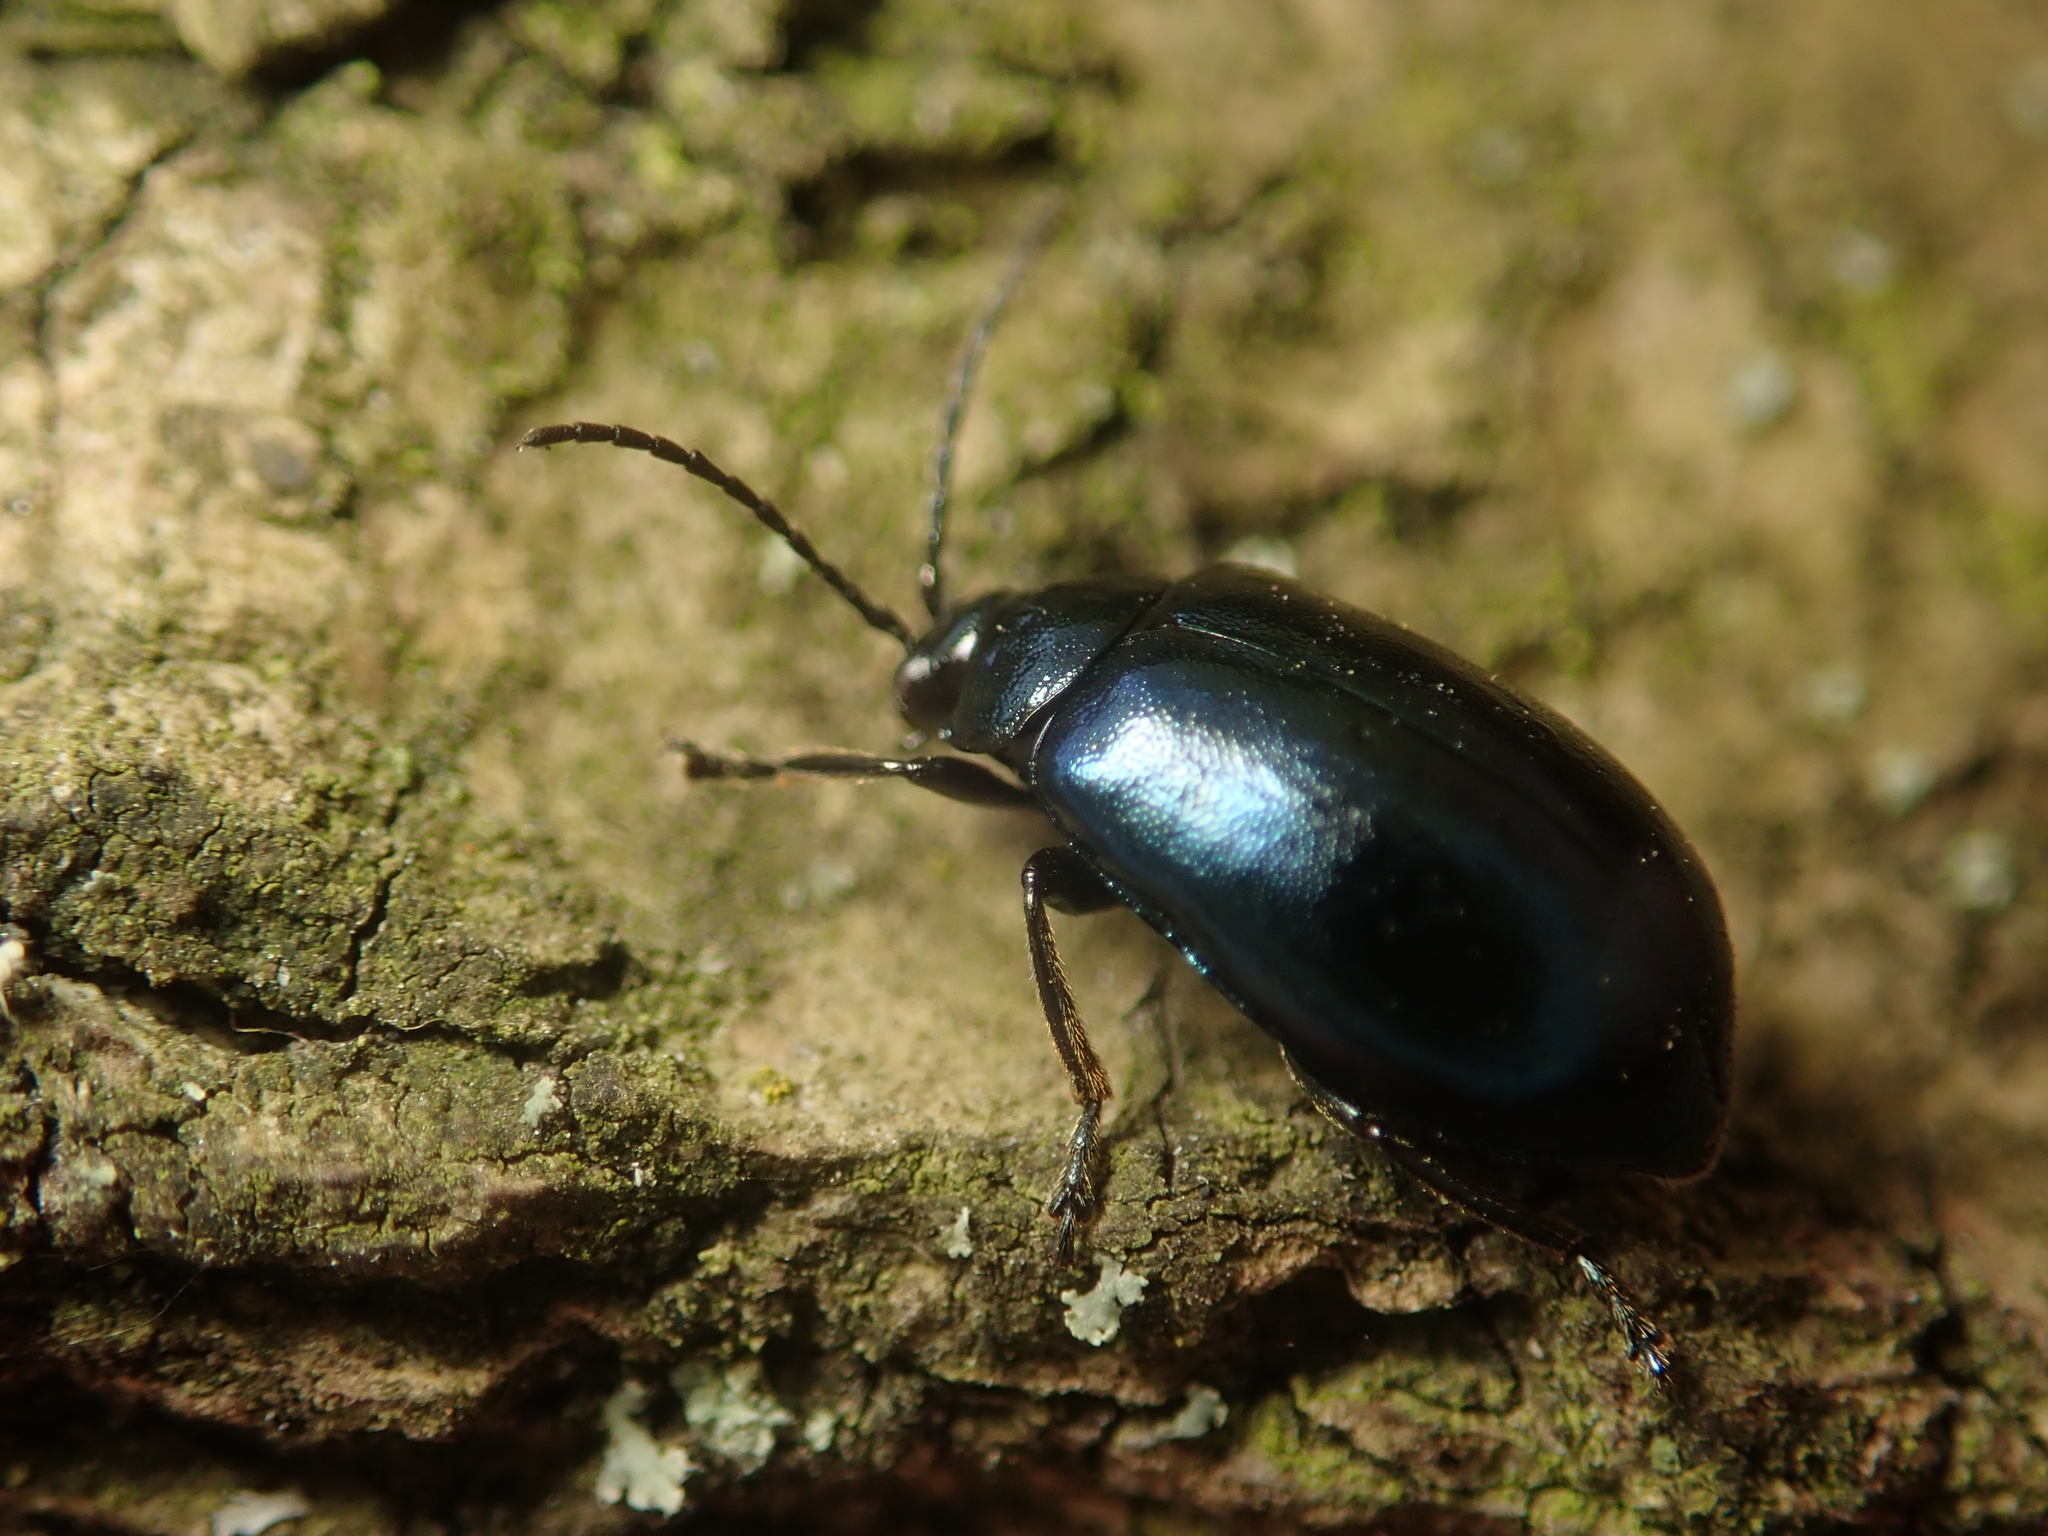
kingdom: Animalia
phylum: Arthropoda
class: Insecta
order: Coleoptera
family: Chrysomelidae
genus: Agelastica
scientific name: Agelastica alni
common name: Alder leaf beetle
